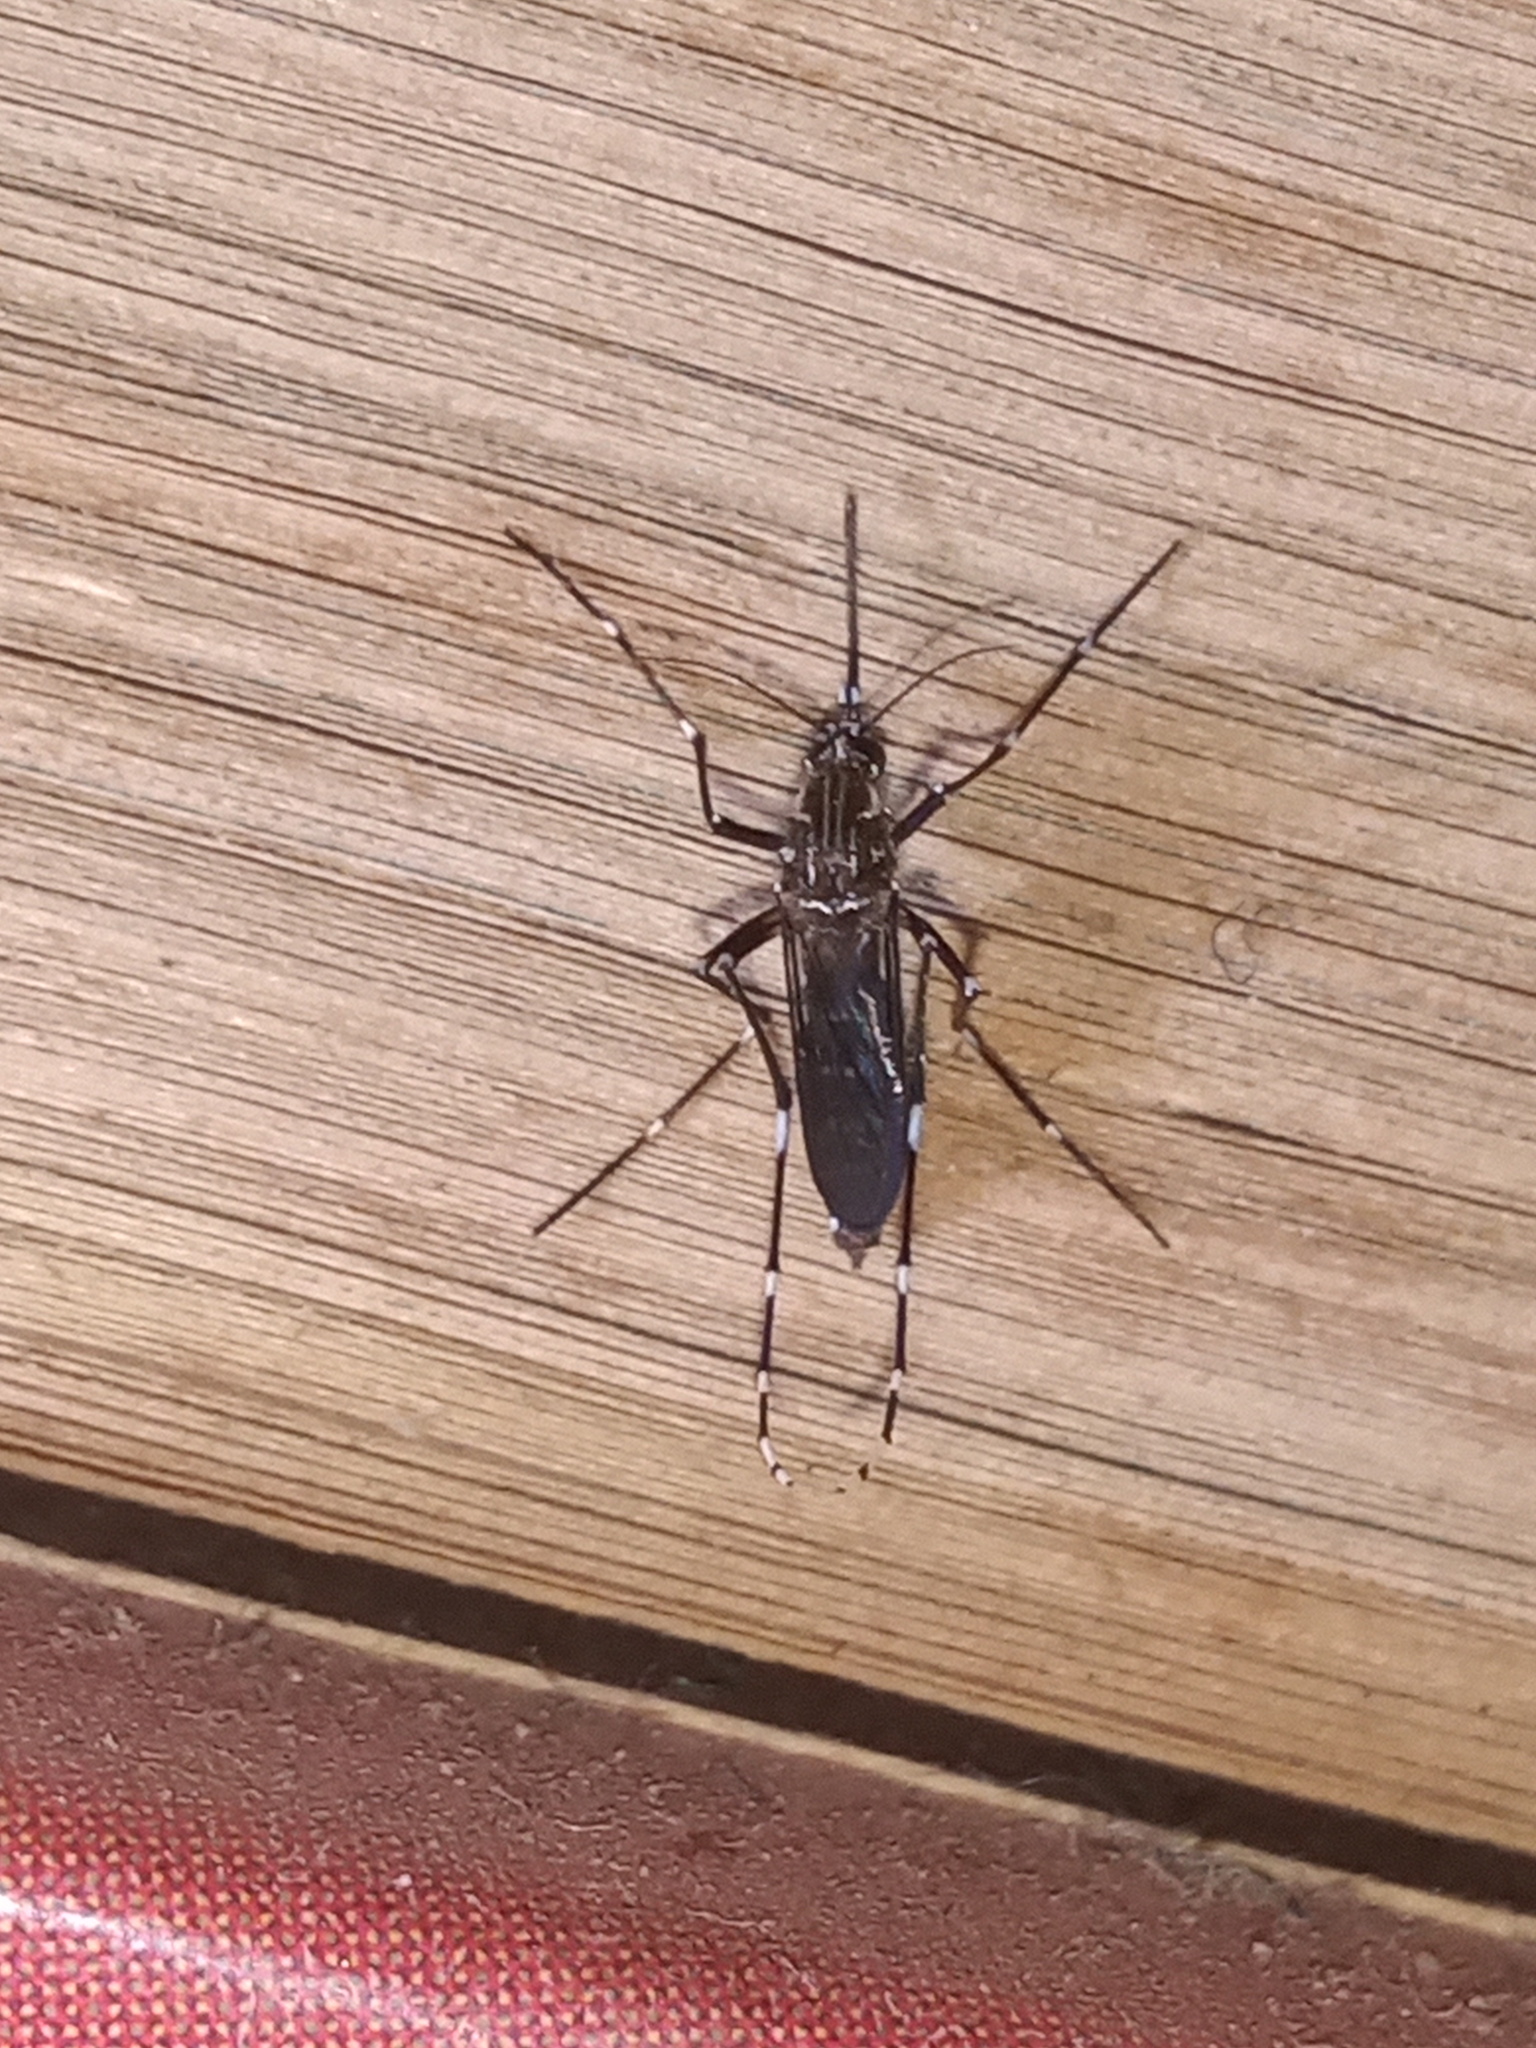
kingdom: Animalia
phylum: Arthropoda
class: Insecta
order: Diptera
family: Culicidae
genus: Aedes
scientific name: Aedes aegypti
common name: Yellow fever mosquito
